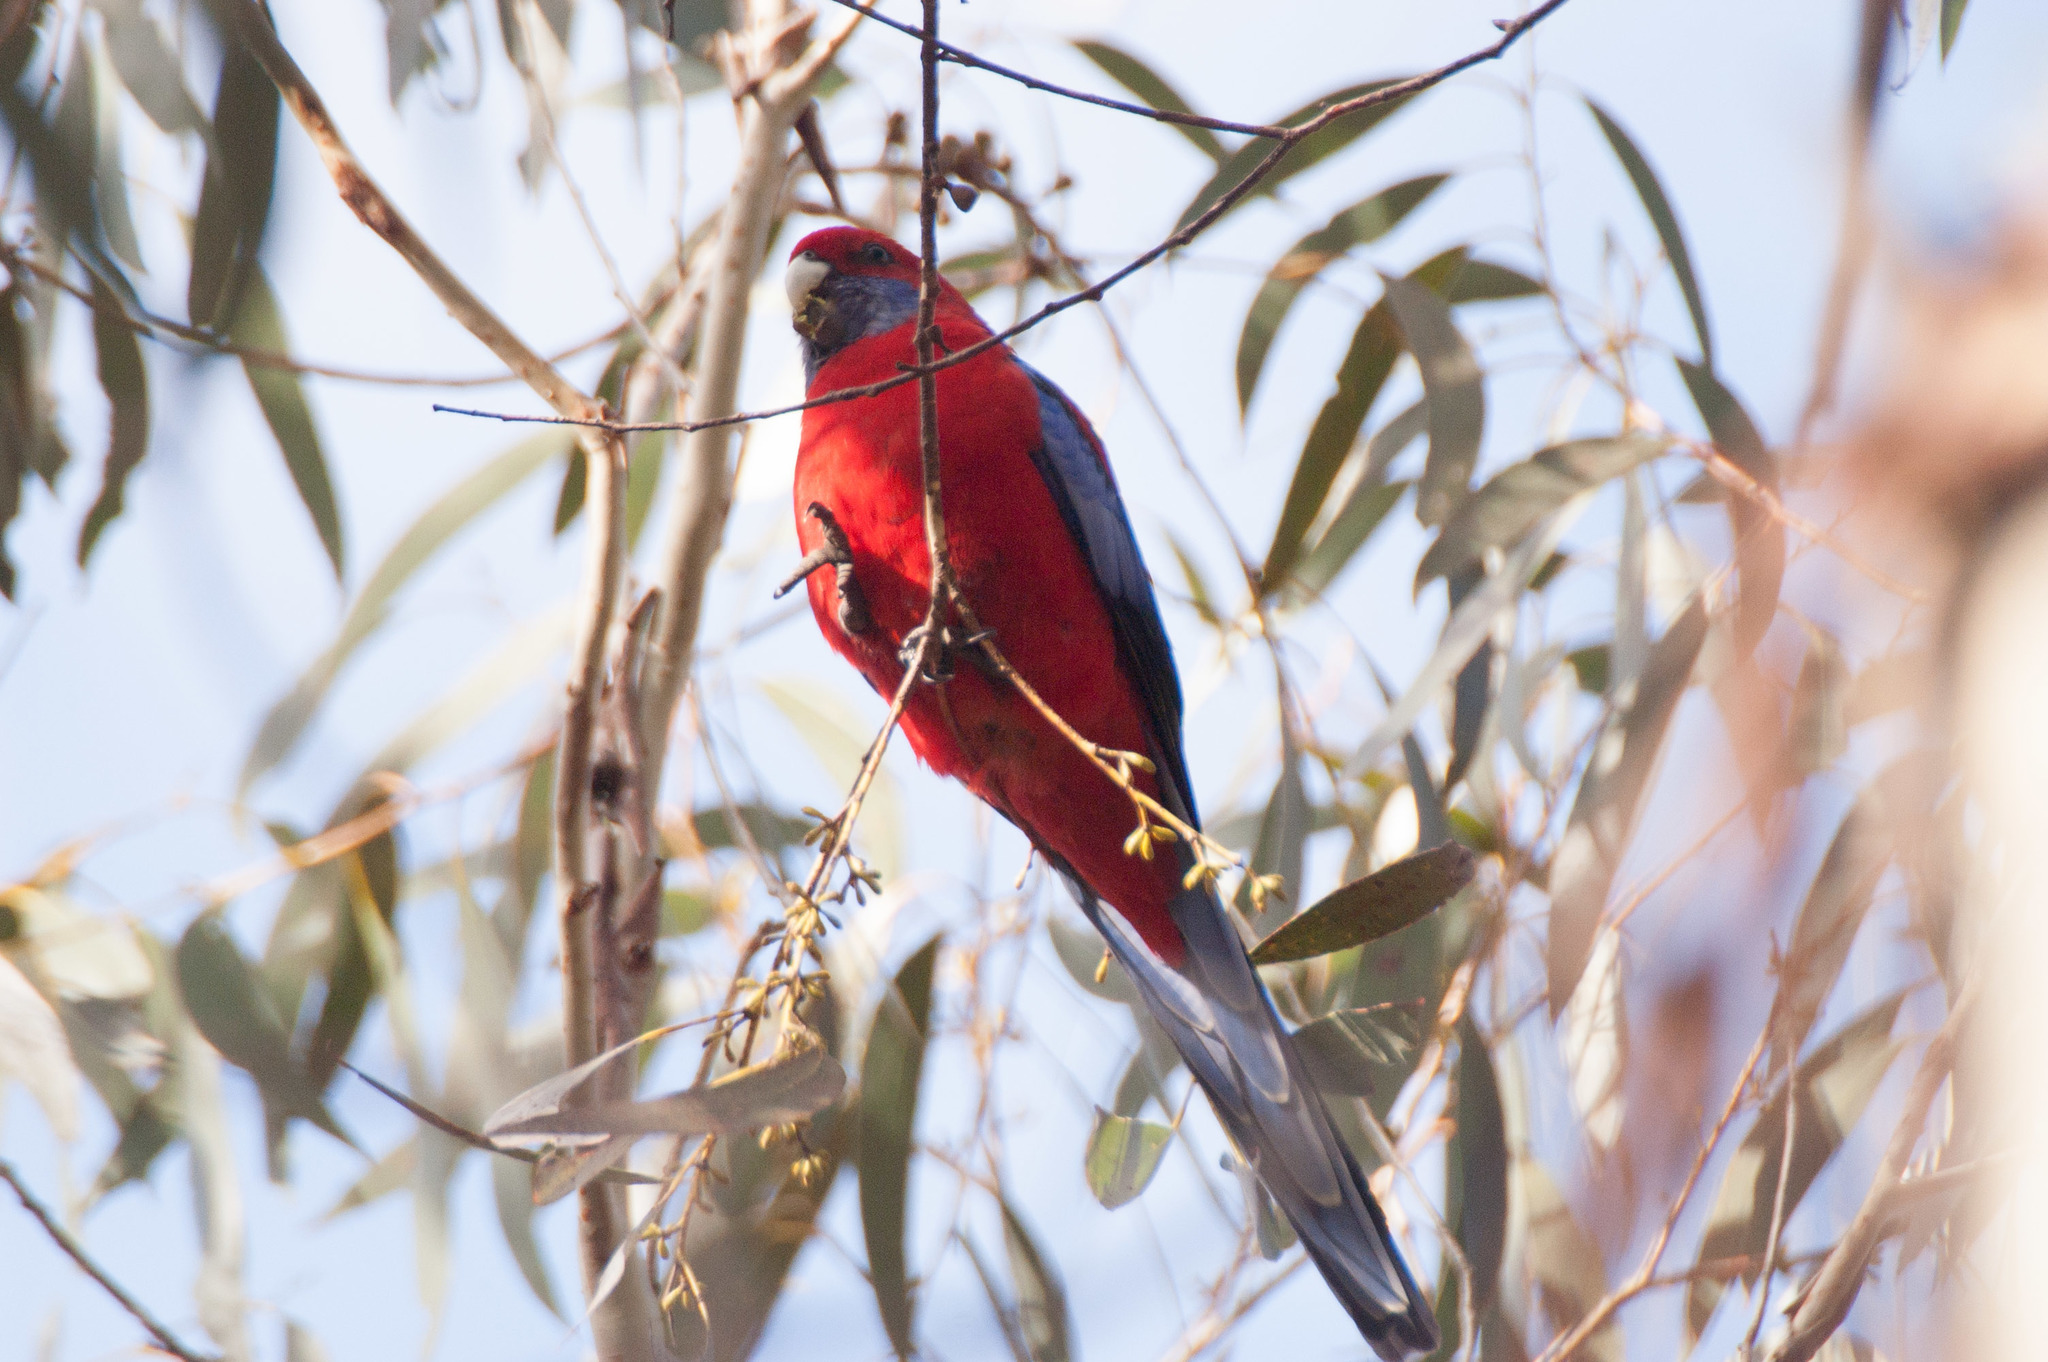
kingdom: Animalia
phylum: Chordata
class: Aves
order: Psittaciformes
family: Psittacidae
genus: Platycercus
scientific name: Platycercus elegans
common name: Crimson rosella
